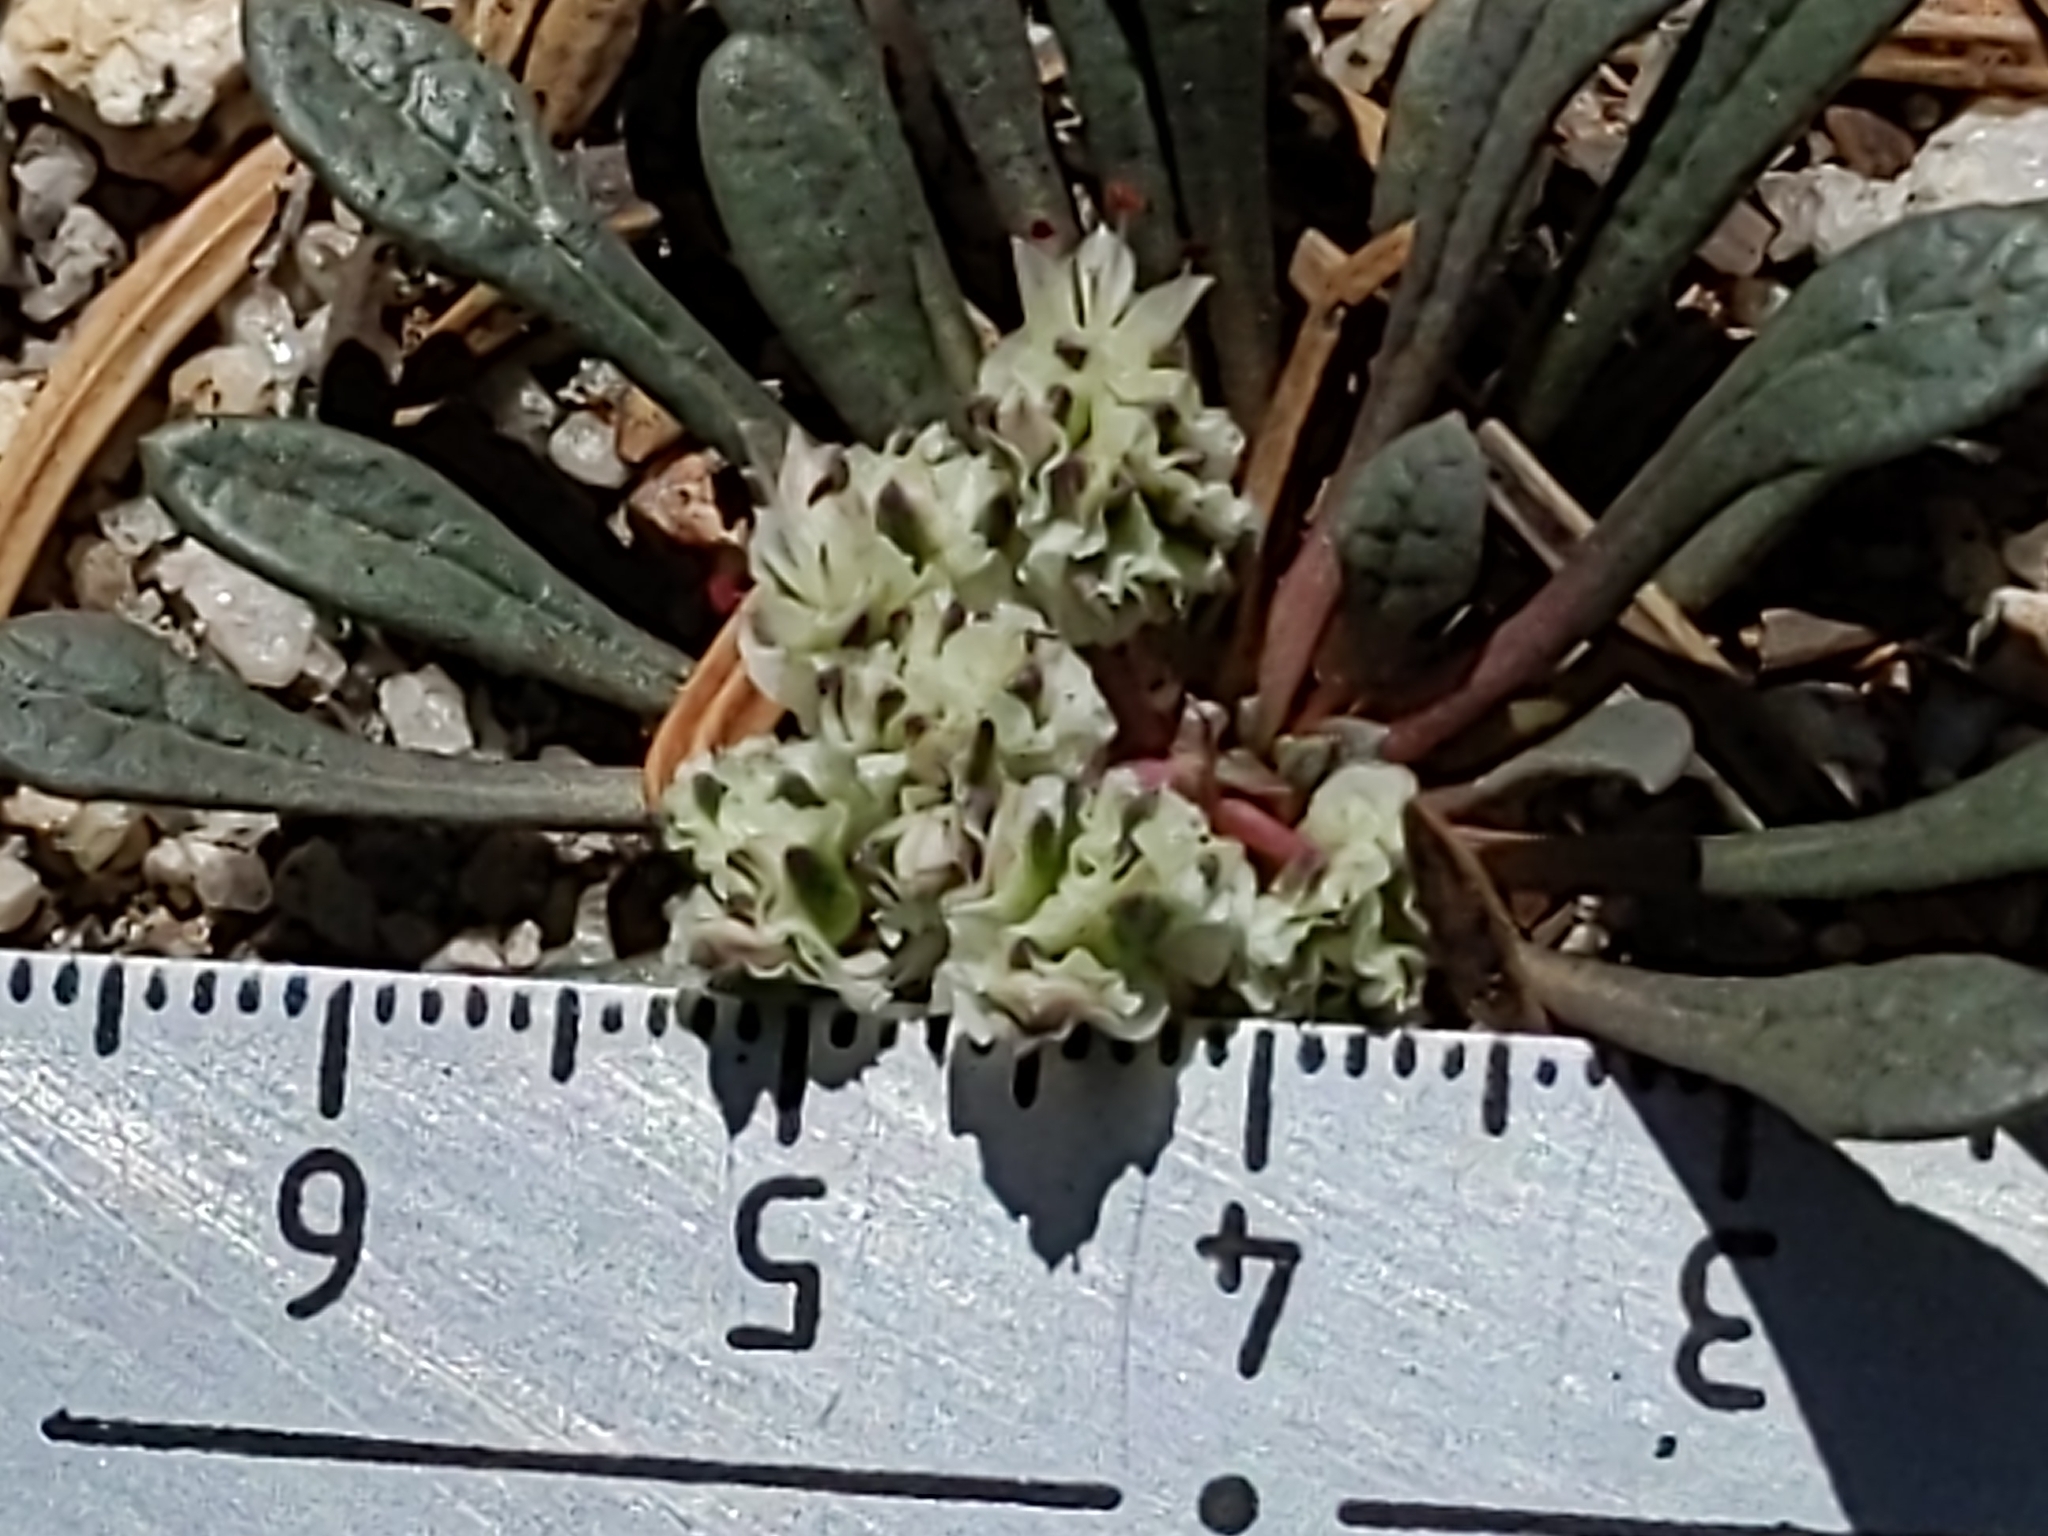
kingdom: Plantae
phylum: Tracheophyta
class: Magnoliopsida
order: Caryophyllales
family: Montiaceae
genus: Calyptridium
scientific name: Calyptridium monospermum
